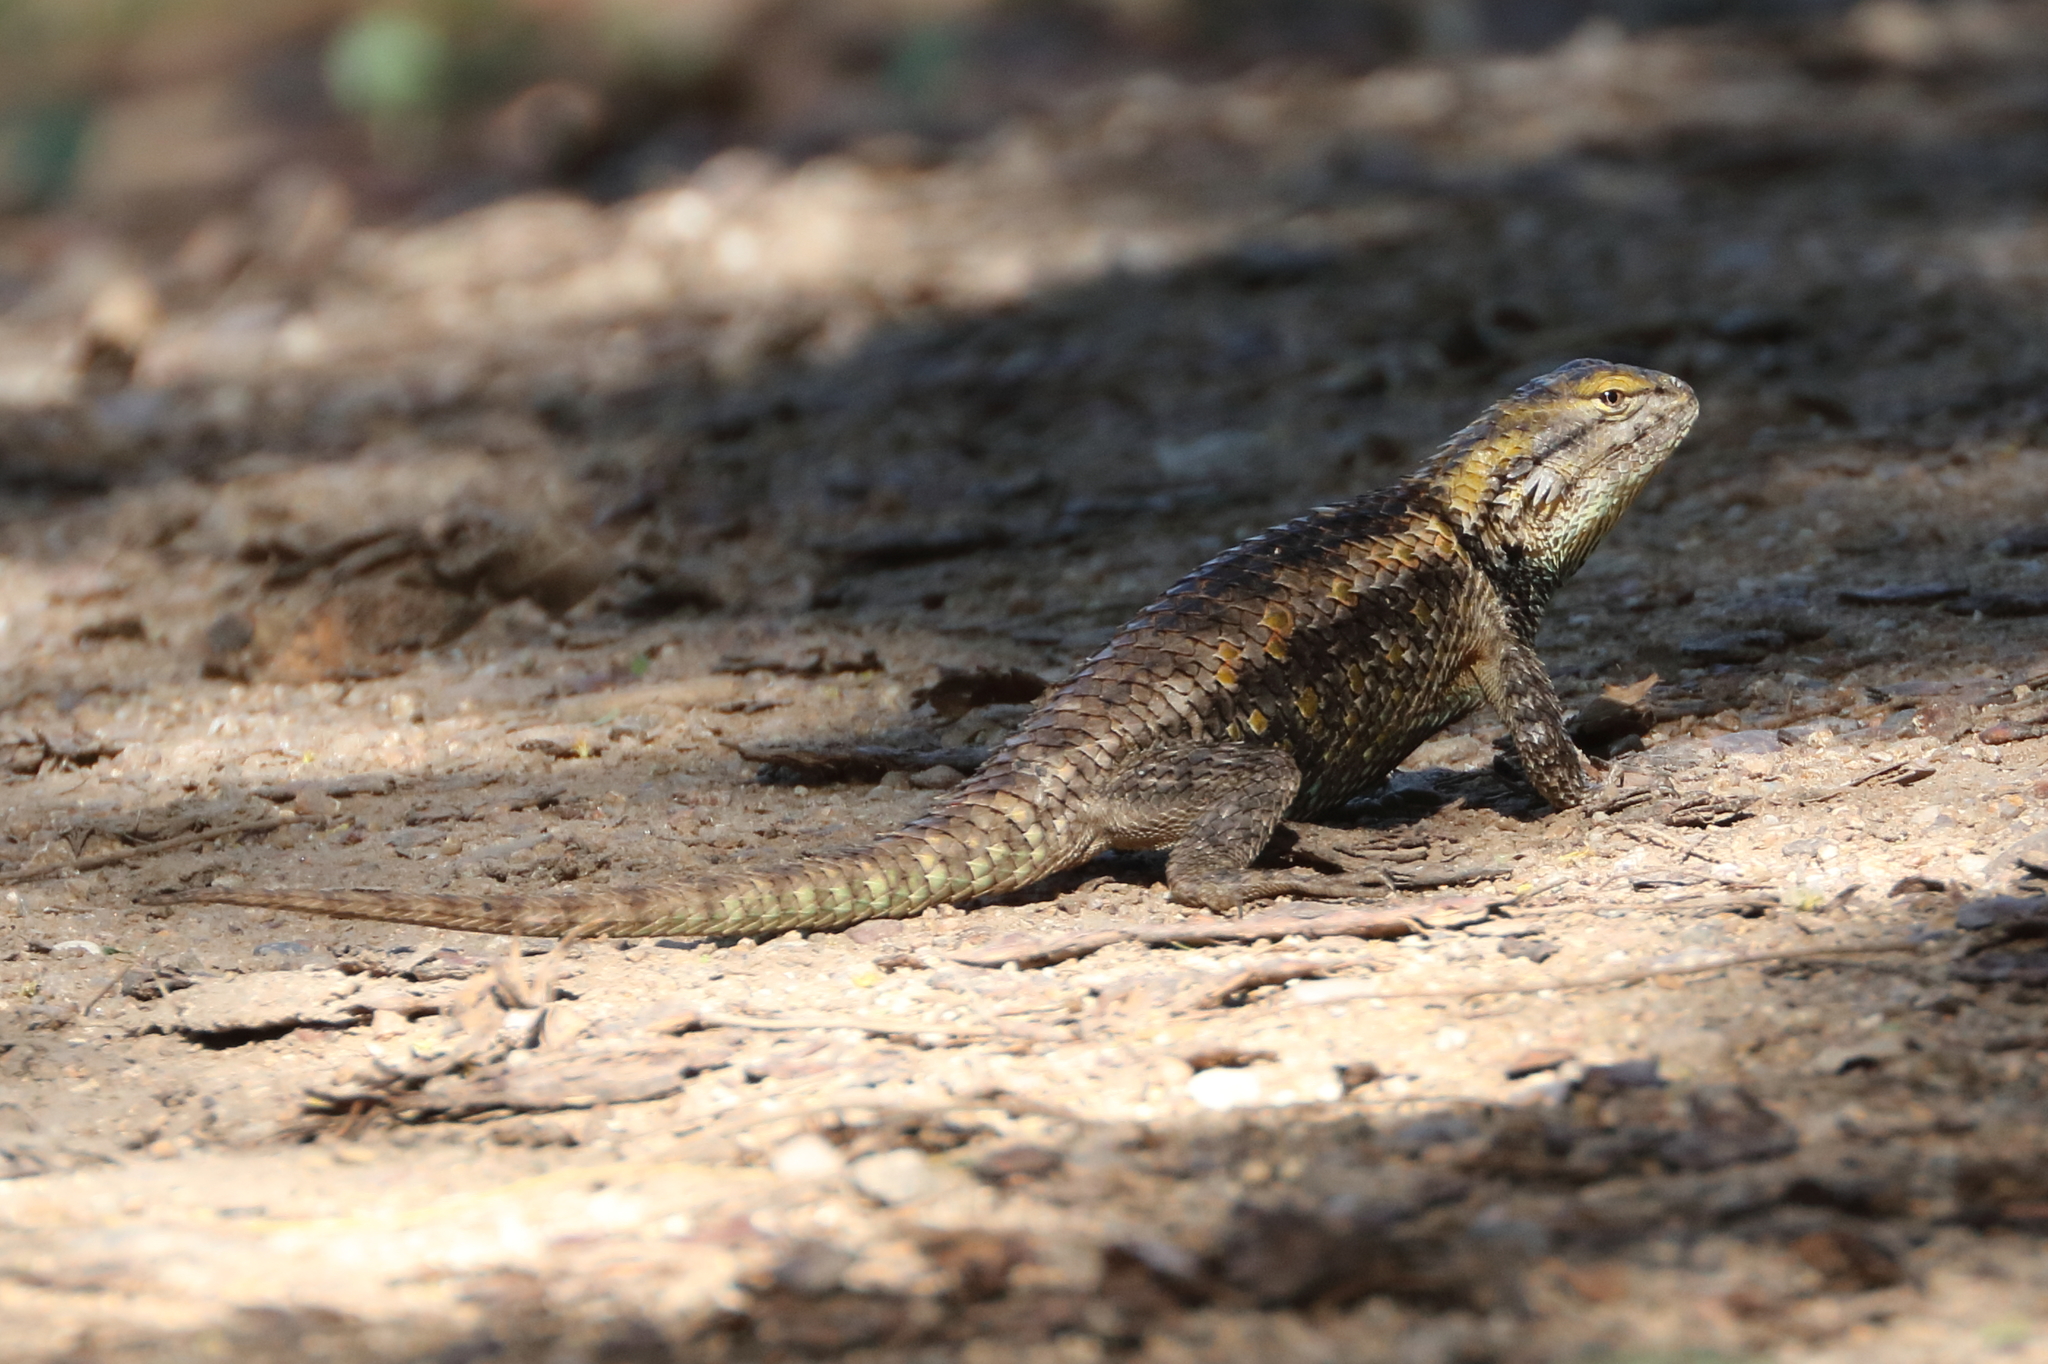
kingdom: Animalia
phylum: Chordata
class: Squamata
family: Phrynosomatidae
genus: Sceloporus
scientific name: Sceloporus magister
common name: Desert spiny lizard
